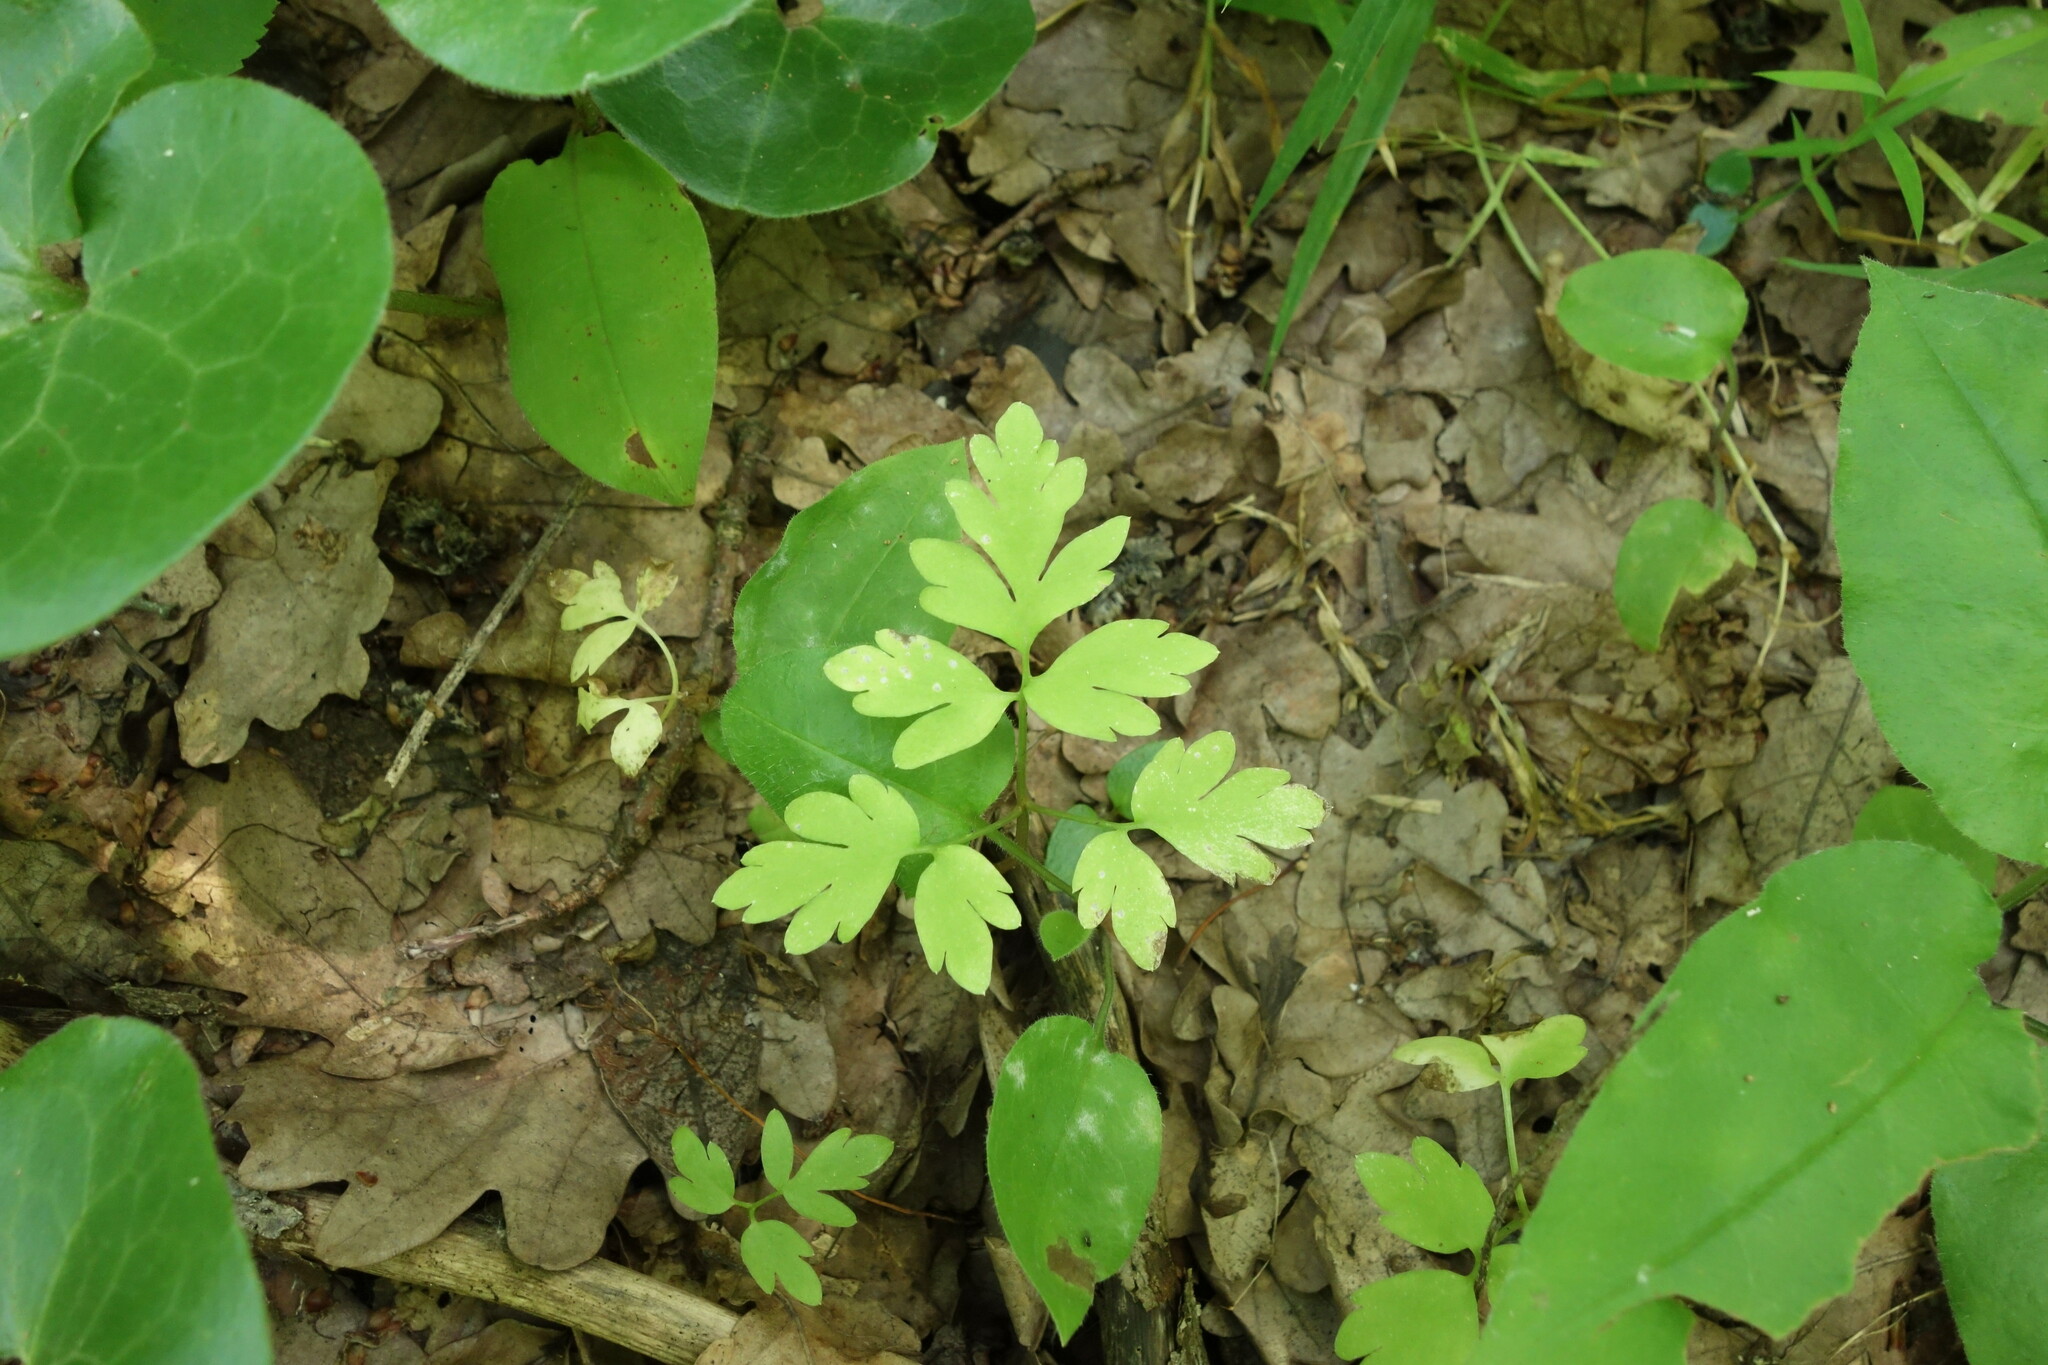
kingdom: Plantae
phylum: Tracheophyta
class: Magnoliopsida
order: Dipsacales
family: Viburnaceae
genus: Adoxa
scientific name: Adoxa moschatellina
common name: Moschatel
